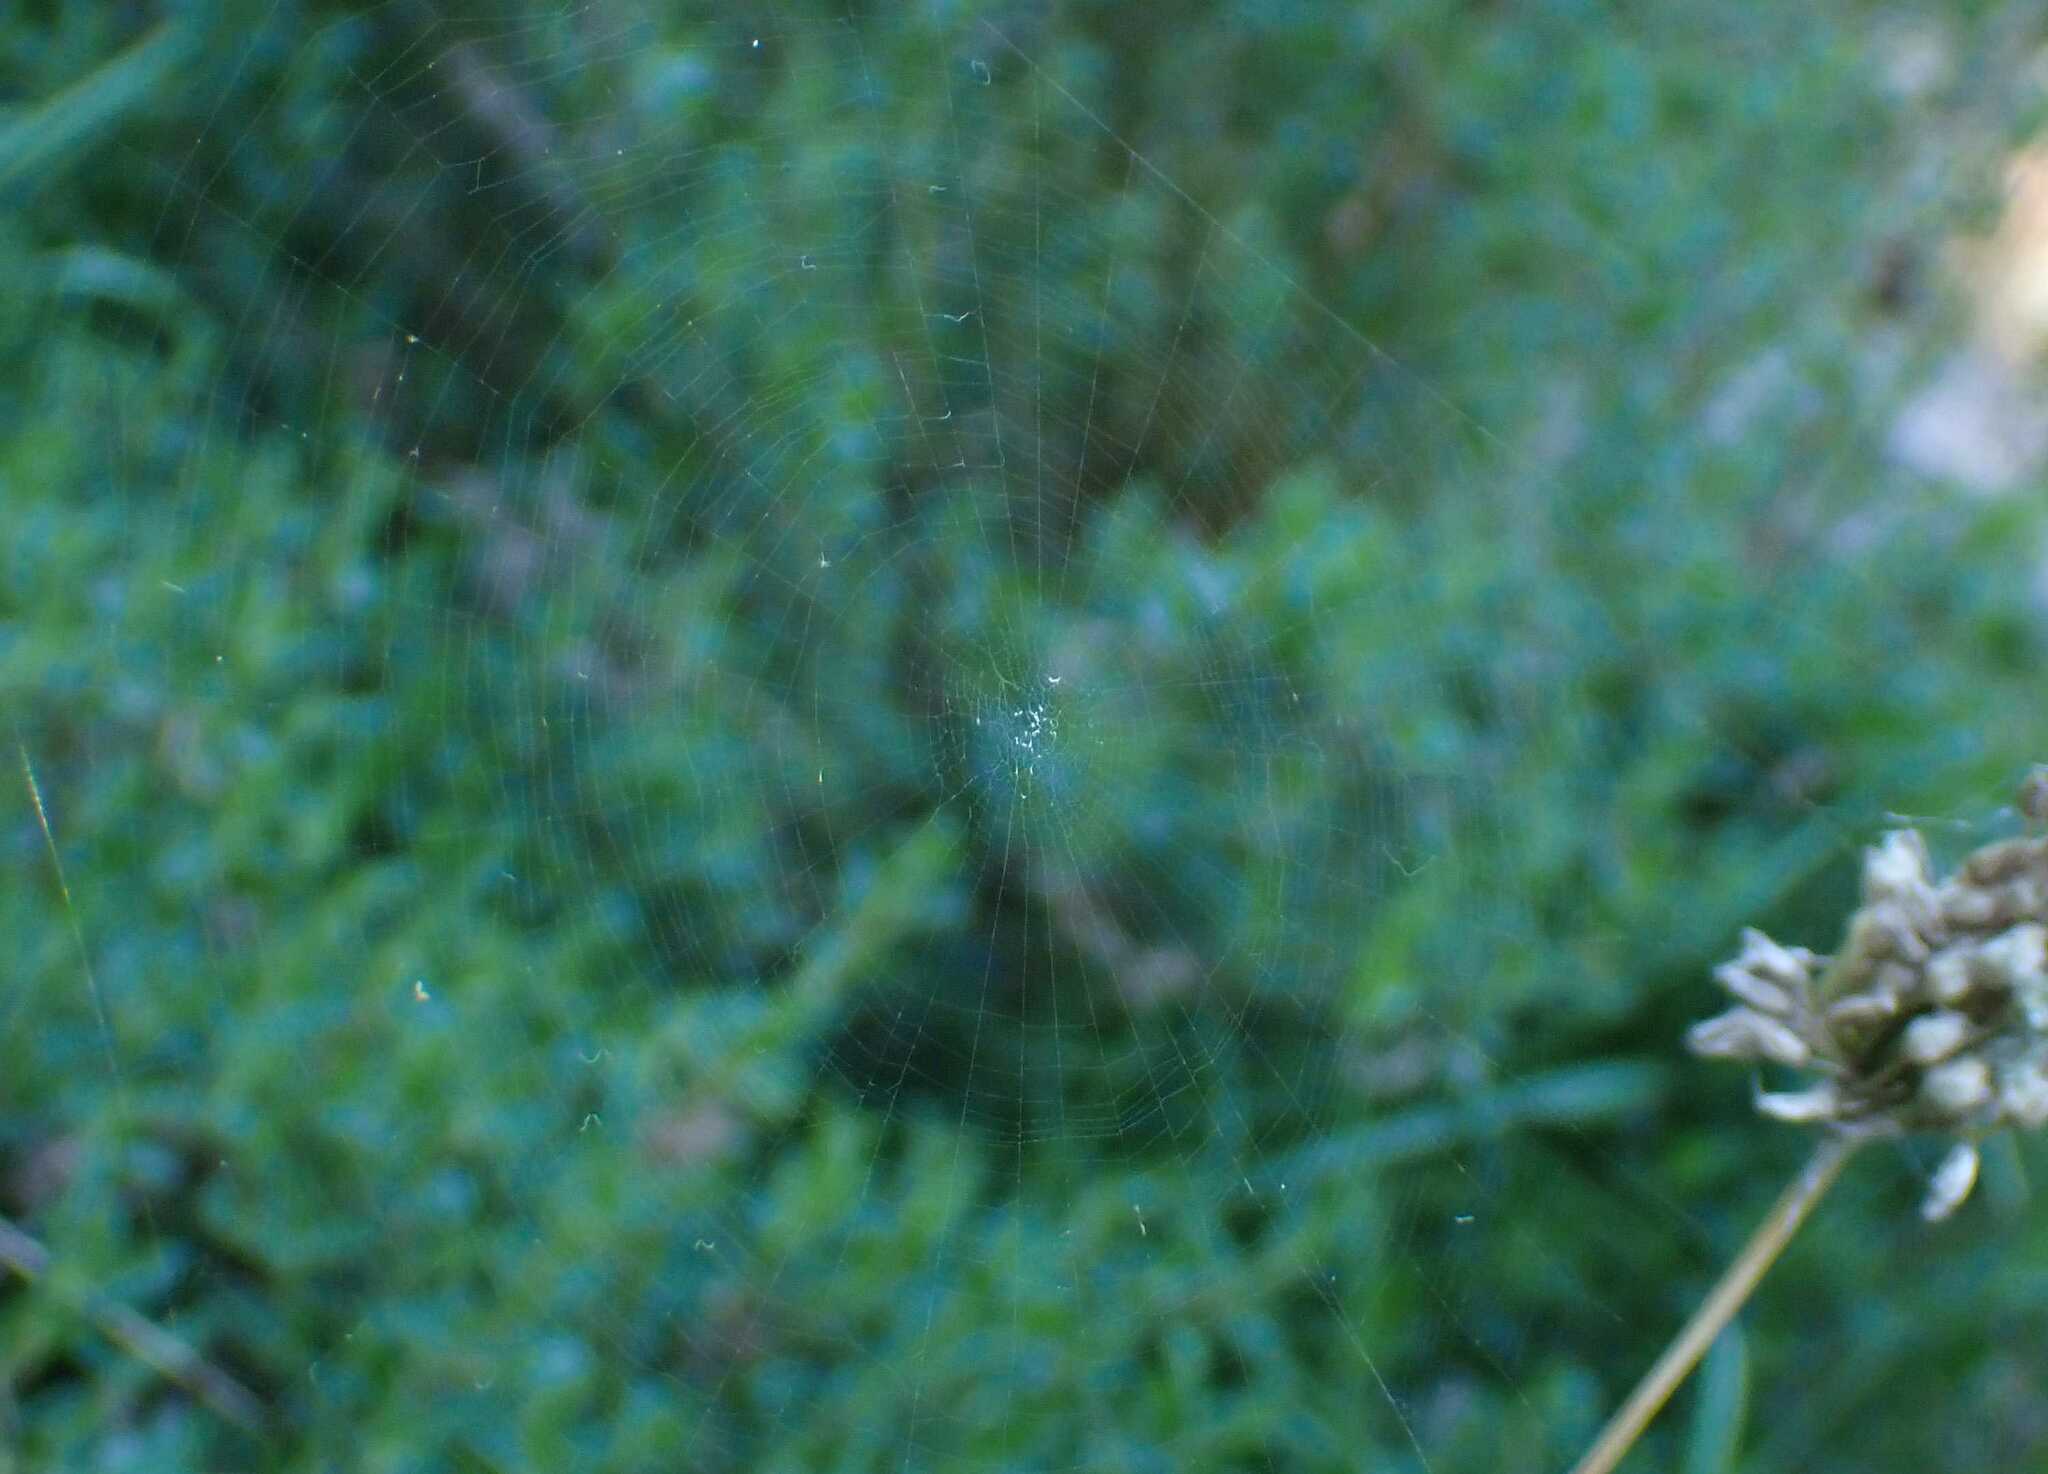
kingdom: Animalia
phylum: Arthropoda
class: Arachnida
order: Araneae
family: Araneidae
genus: Mangora
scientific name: Mangora acalypha
